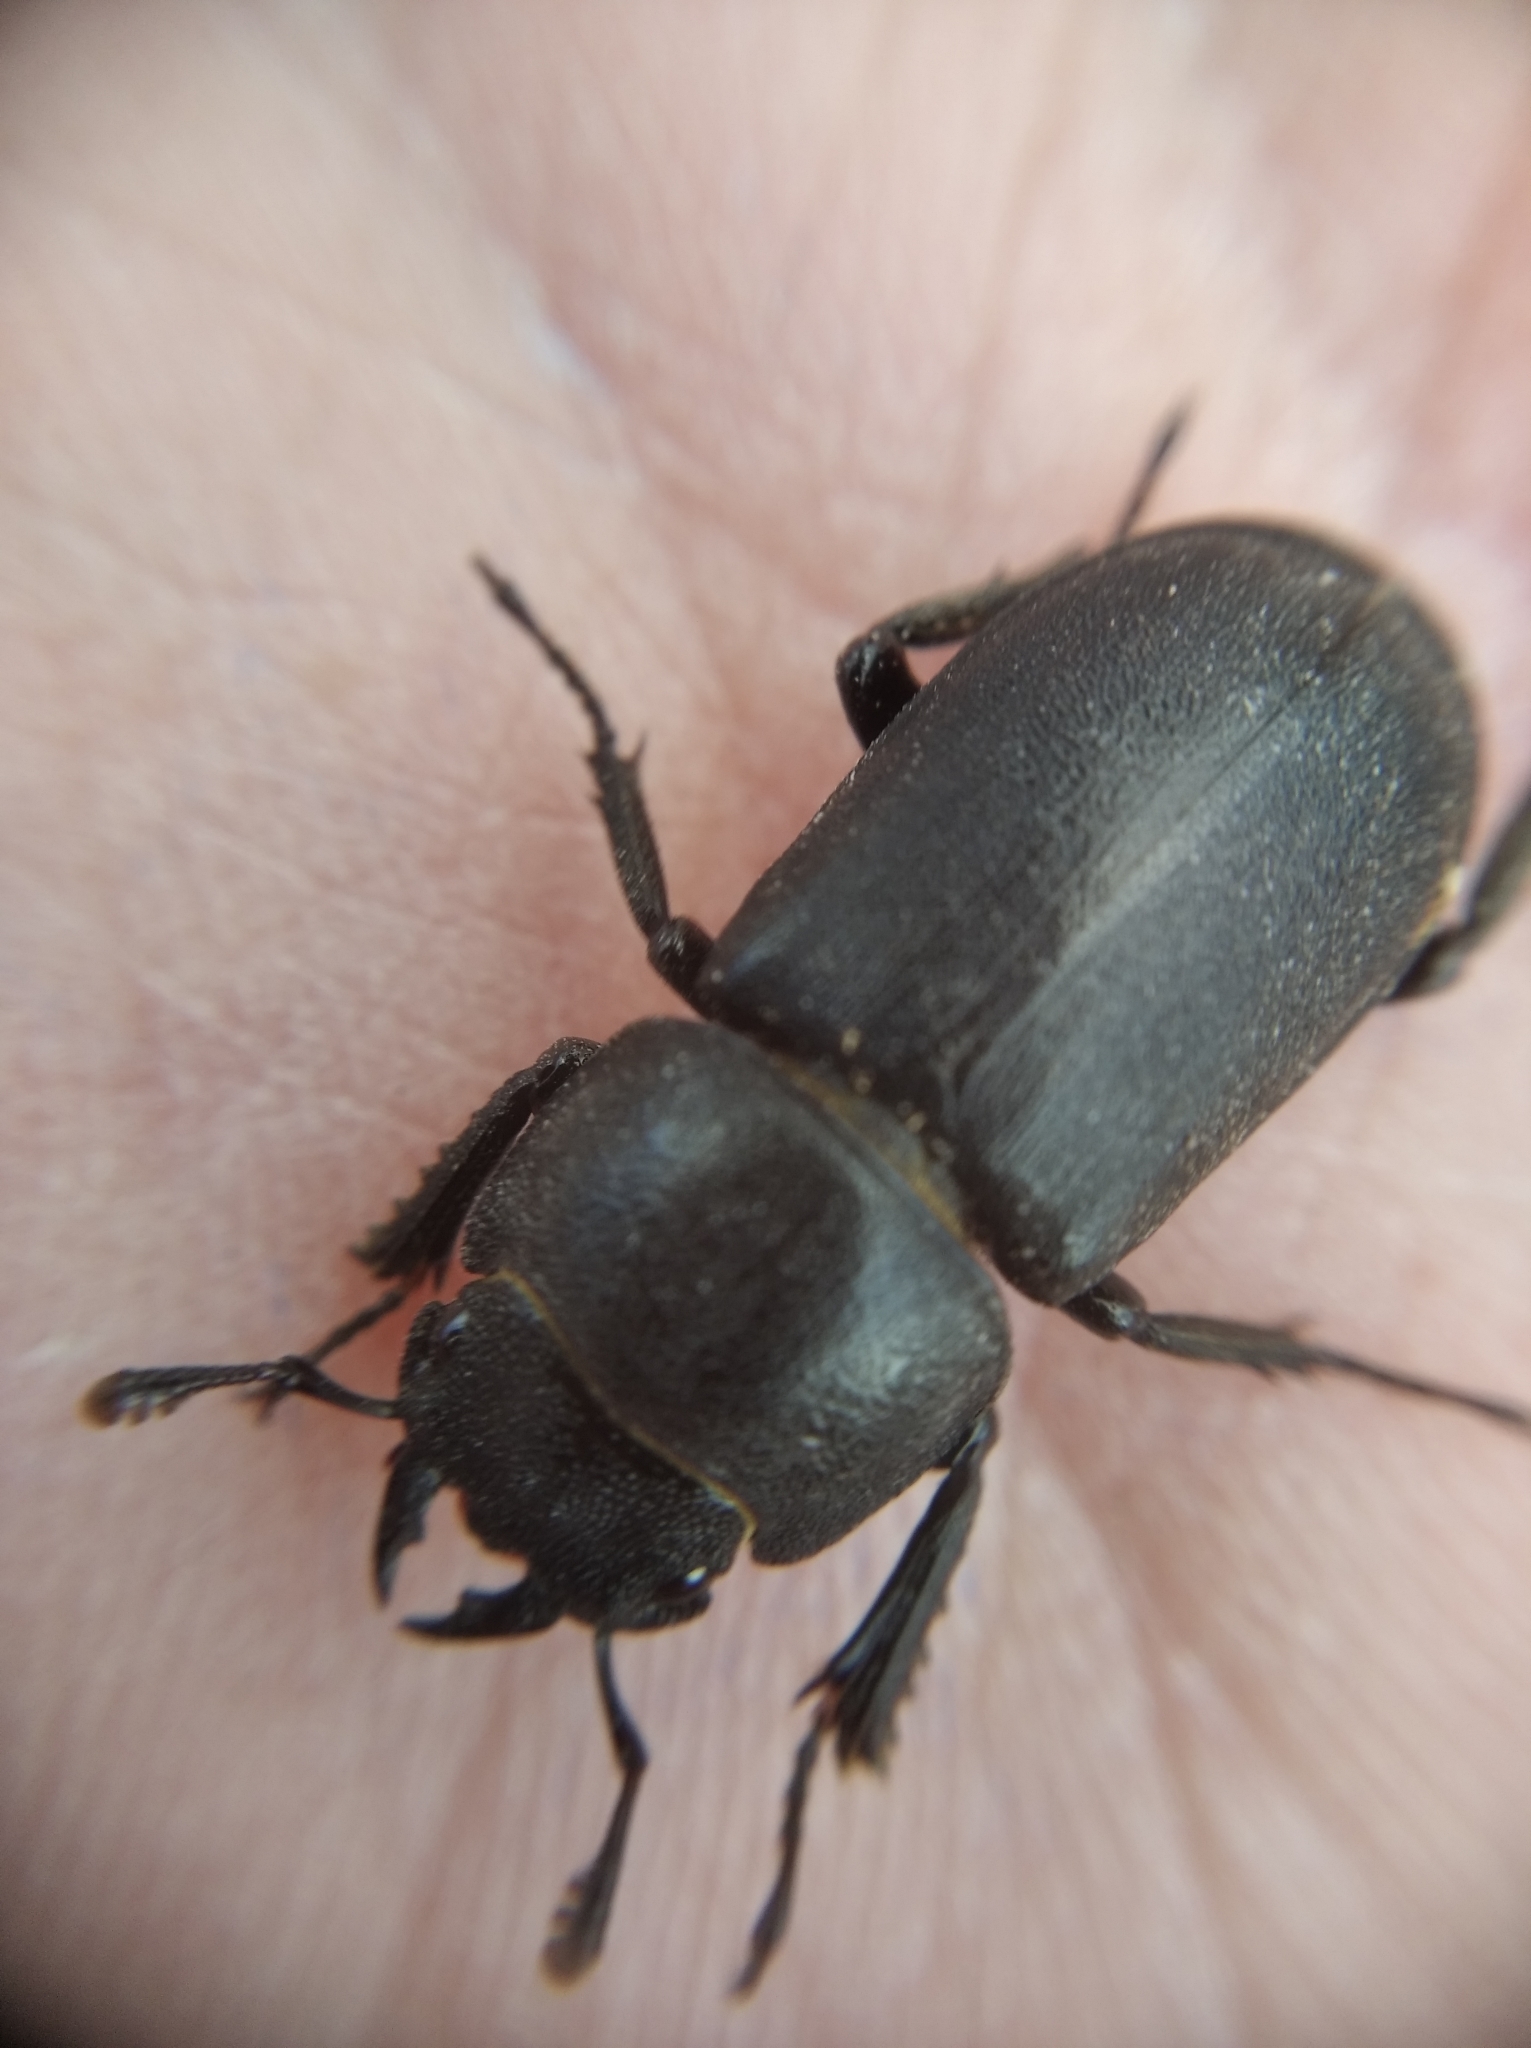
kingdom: Animalia
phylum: Arthropoda
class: Insecta
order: Coleoptera
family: Lucanidae
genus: Dorcus
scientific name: Dorcus parallelipipedus
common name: Lesser stag beetle
